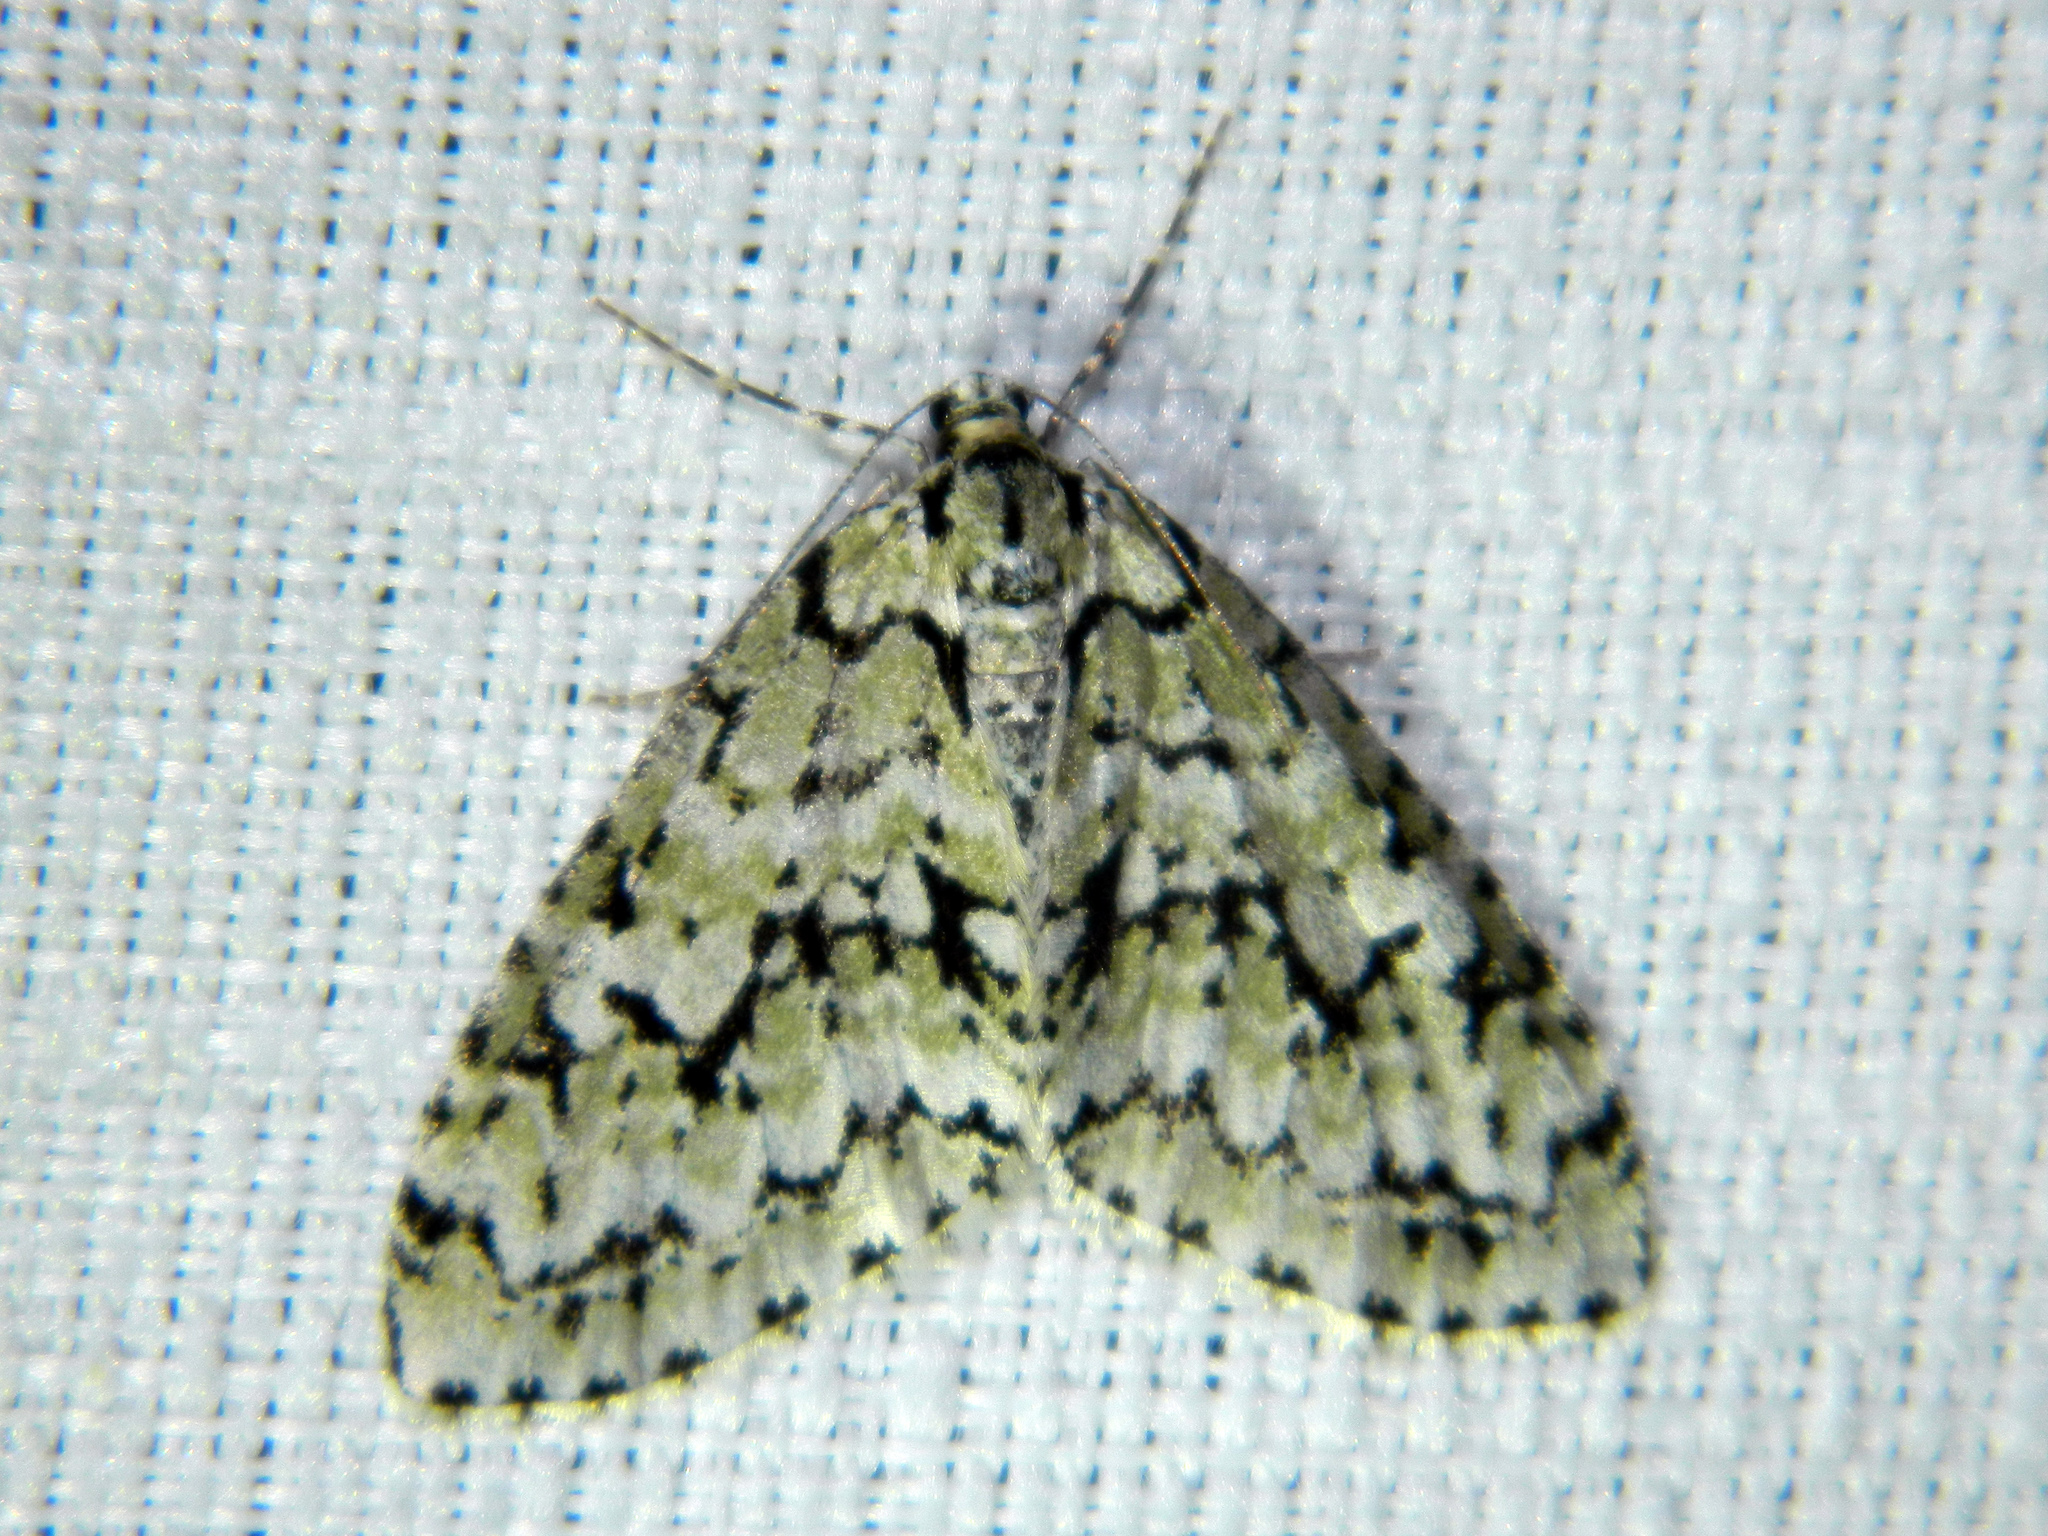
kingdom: Animalia
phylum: Arthropoda
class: Insecta
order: Lepidoptera
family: Geometridae
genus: Cladara
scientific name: Cladara atroliturata
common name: Scribbler
